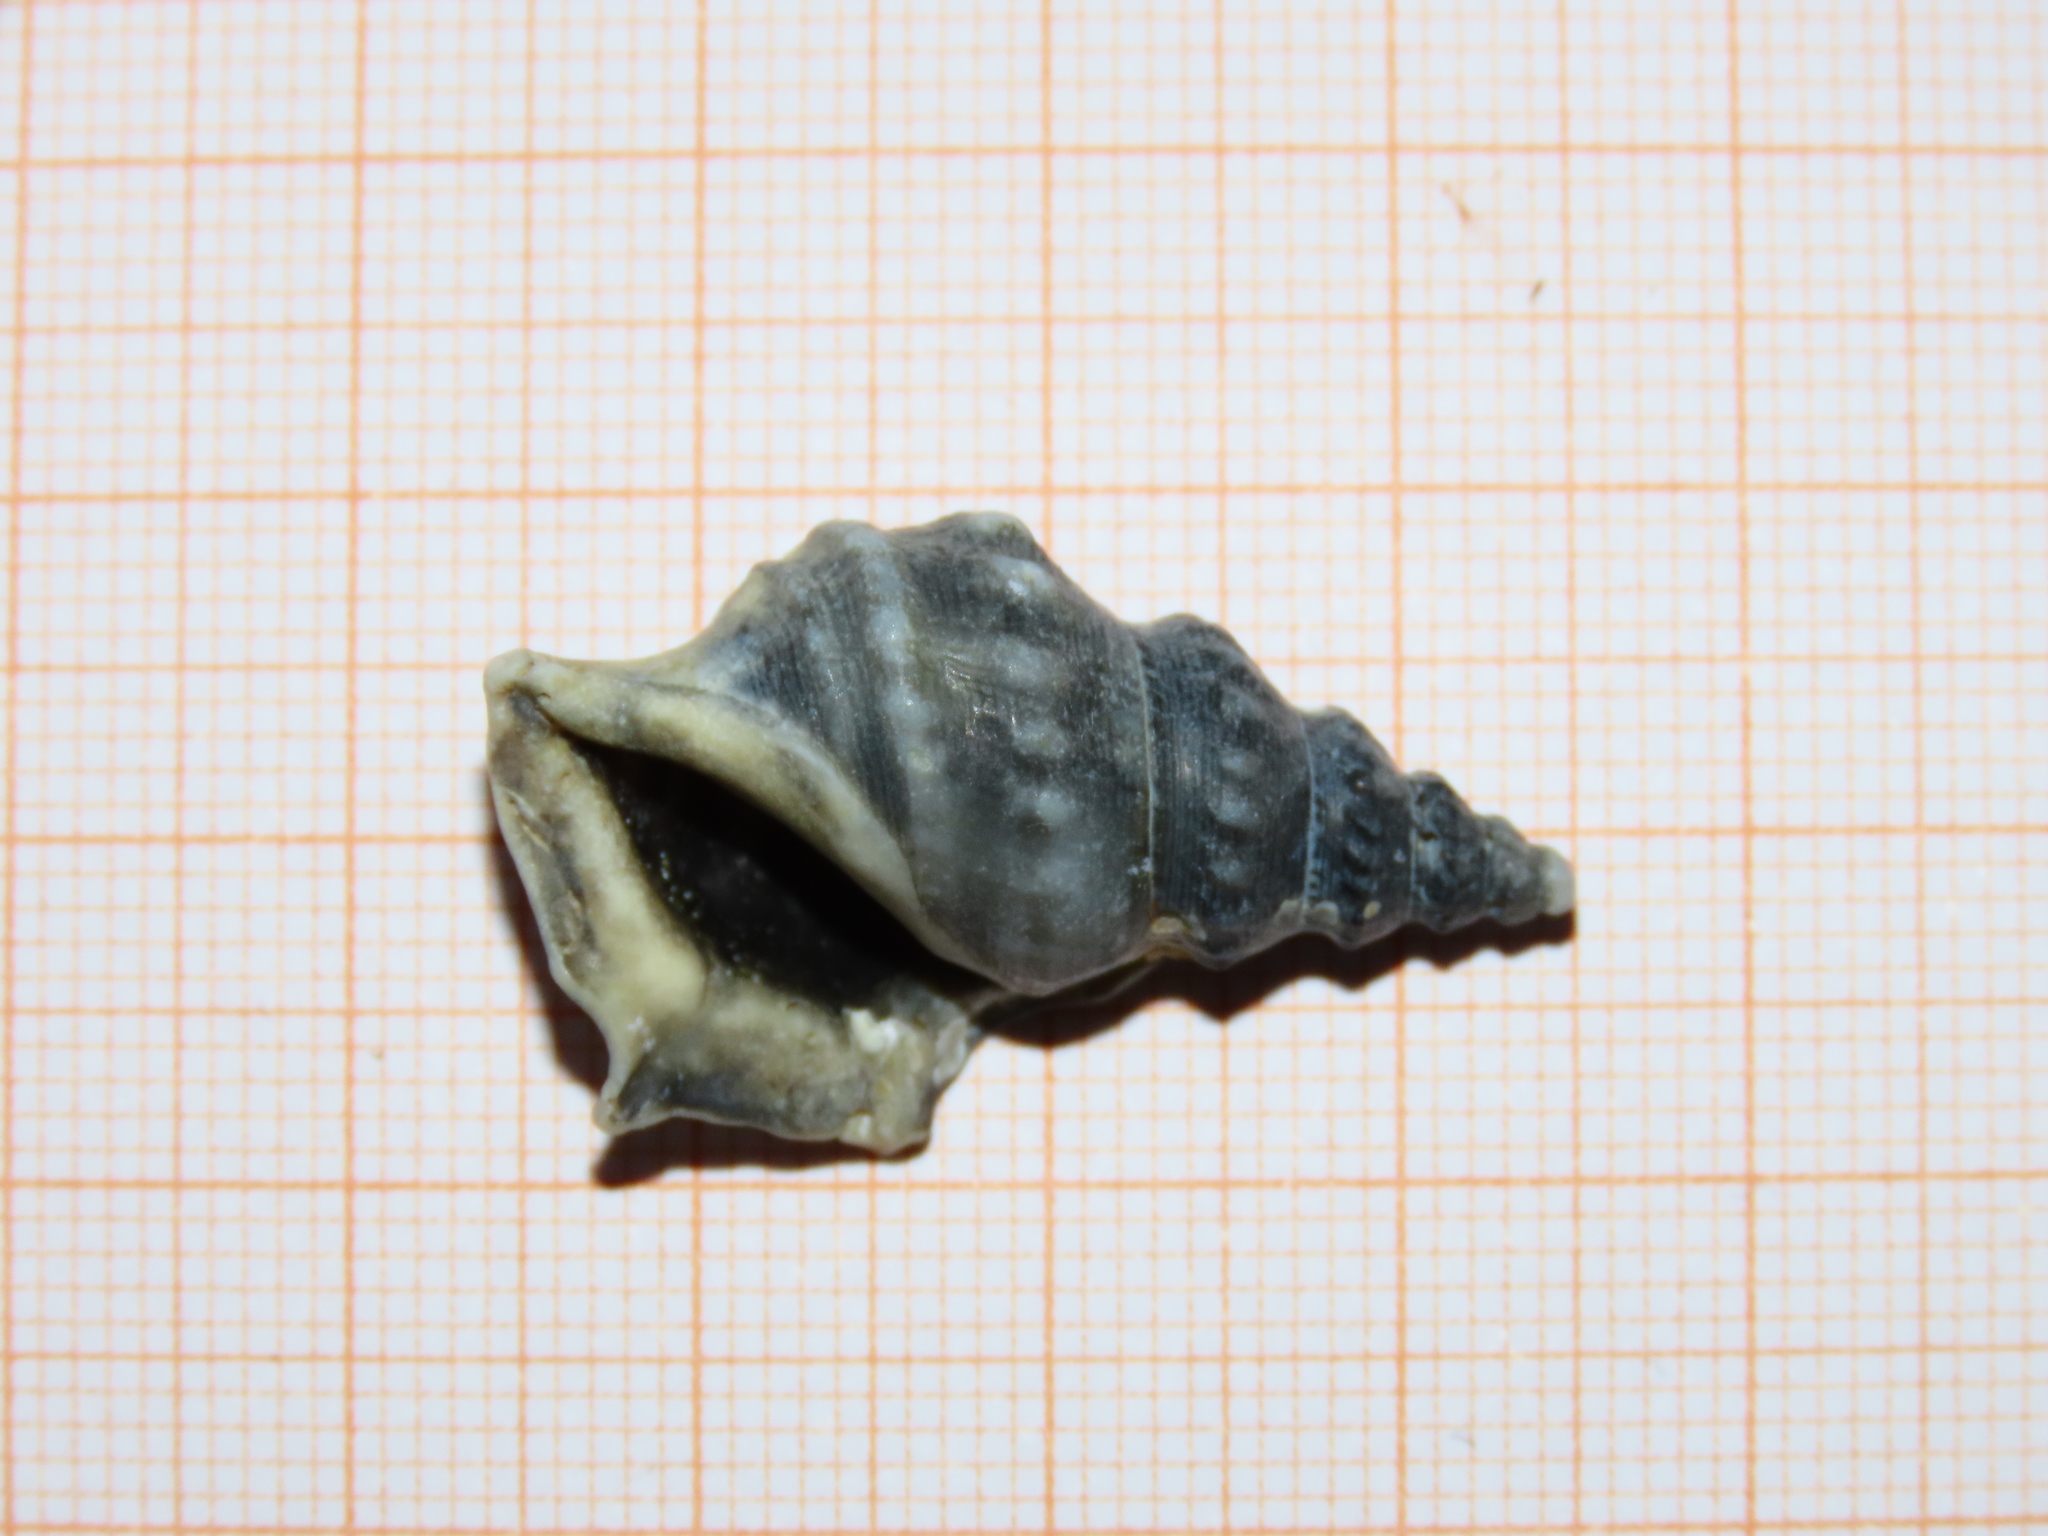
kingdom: Animalia
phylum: Mollusca
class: Gastropoda
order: Littorinimorpha
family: Aporrhaidae
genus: Aporrhais
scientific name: Aporrhais pespelecani
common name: Common pelican’s foot
